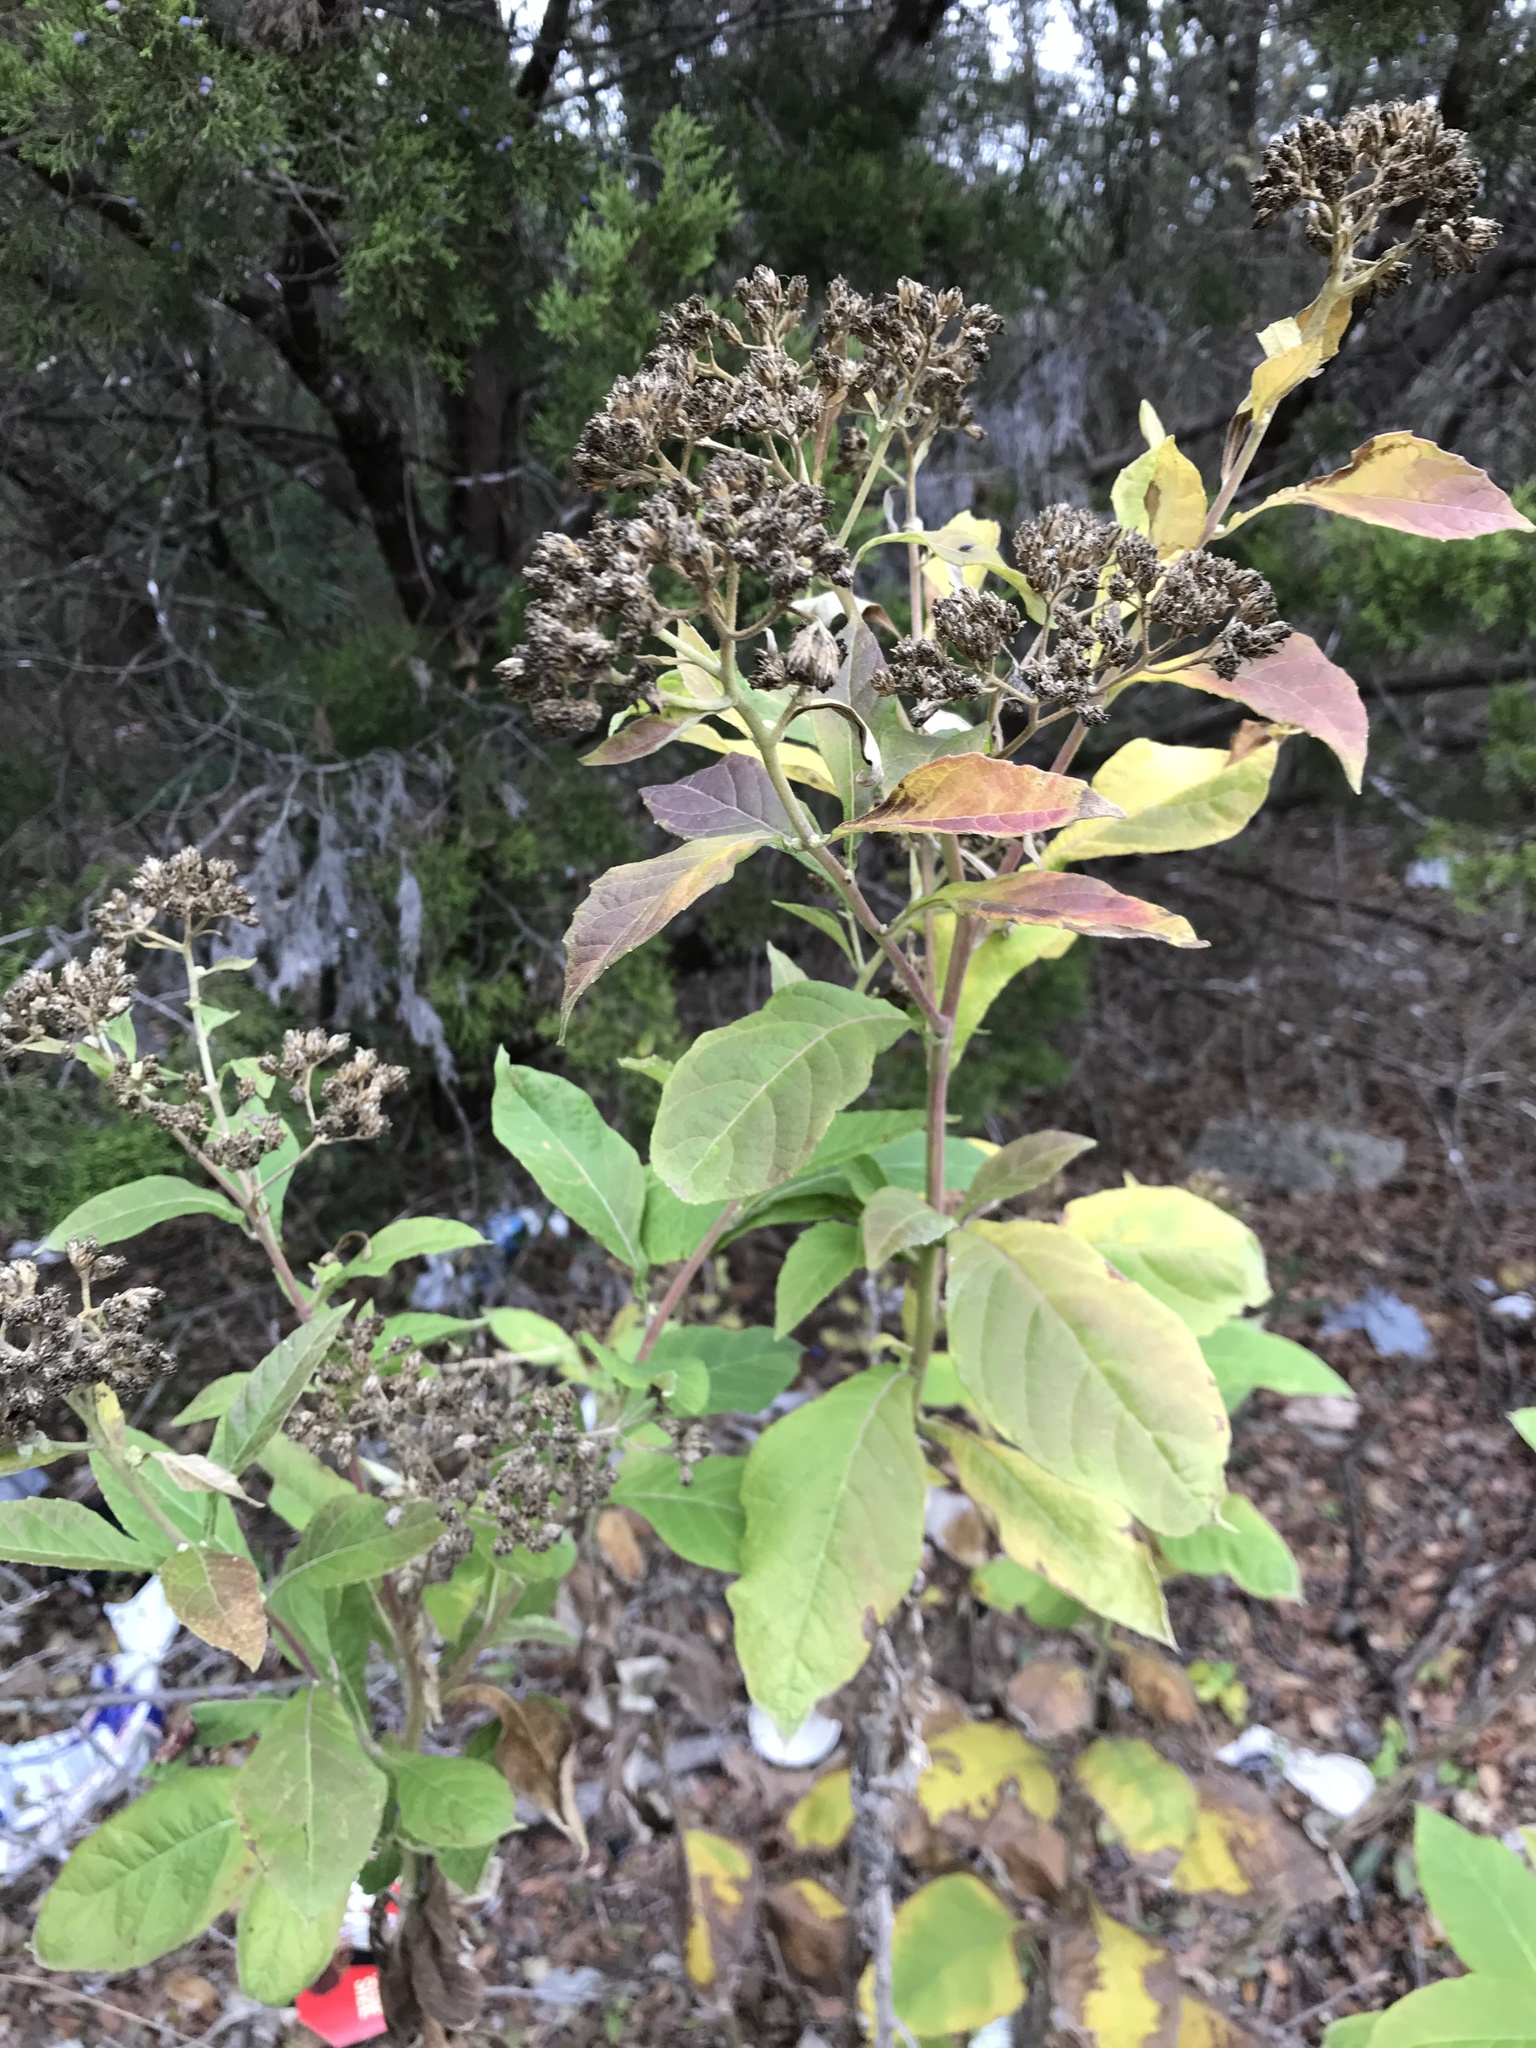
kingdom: Plantae
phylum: Tracheophyta
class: Magnoliopsida
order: Asterales
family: Asteraceae
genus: Verbesina
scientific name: Verbesina virginica
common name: Frostweed
